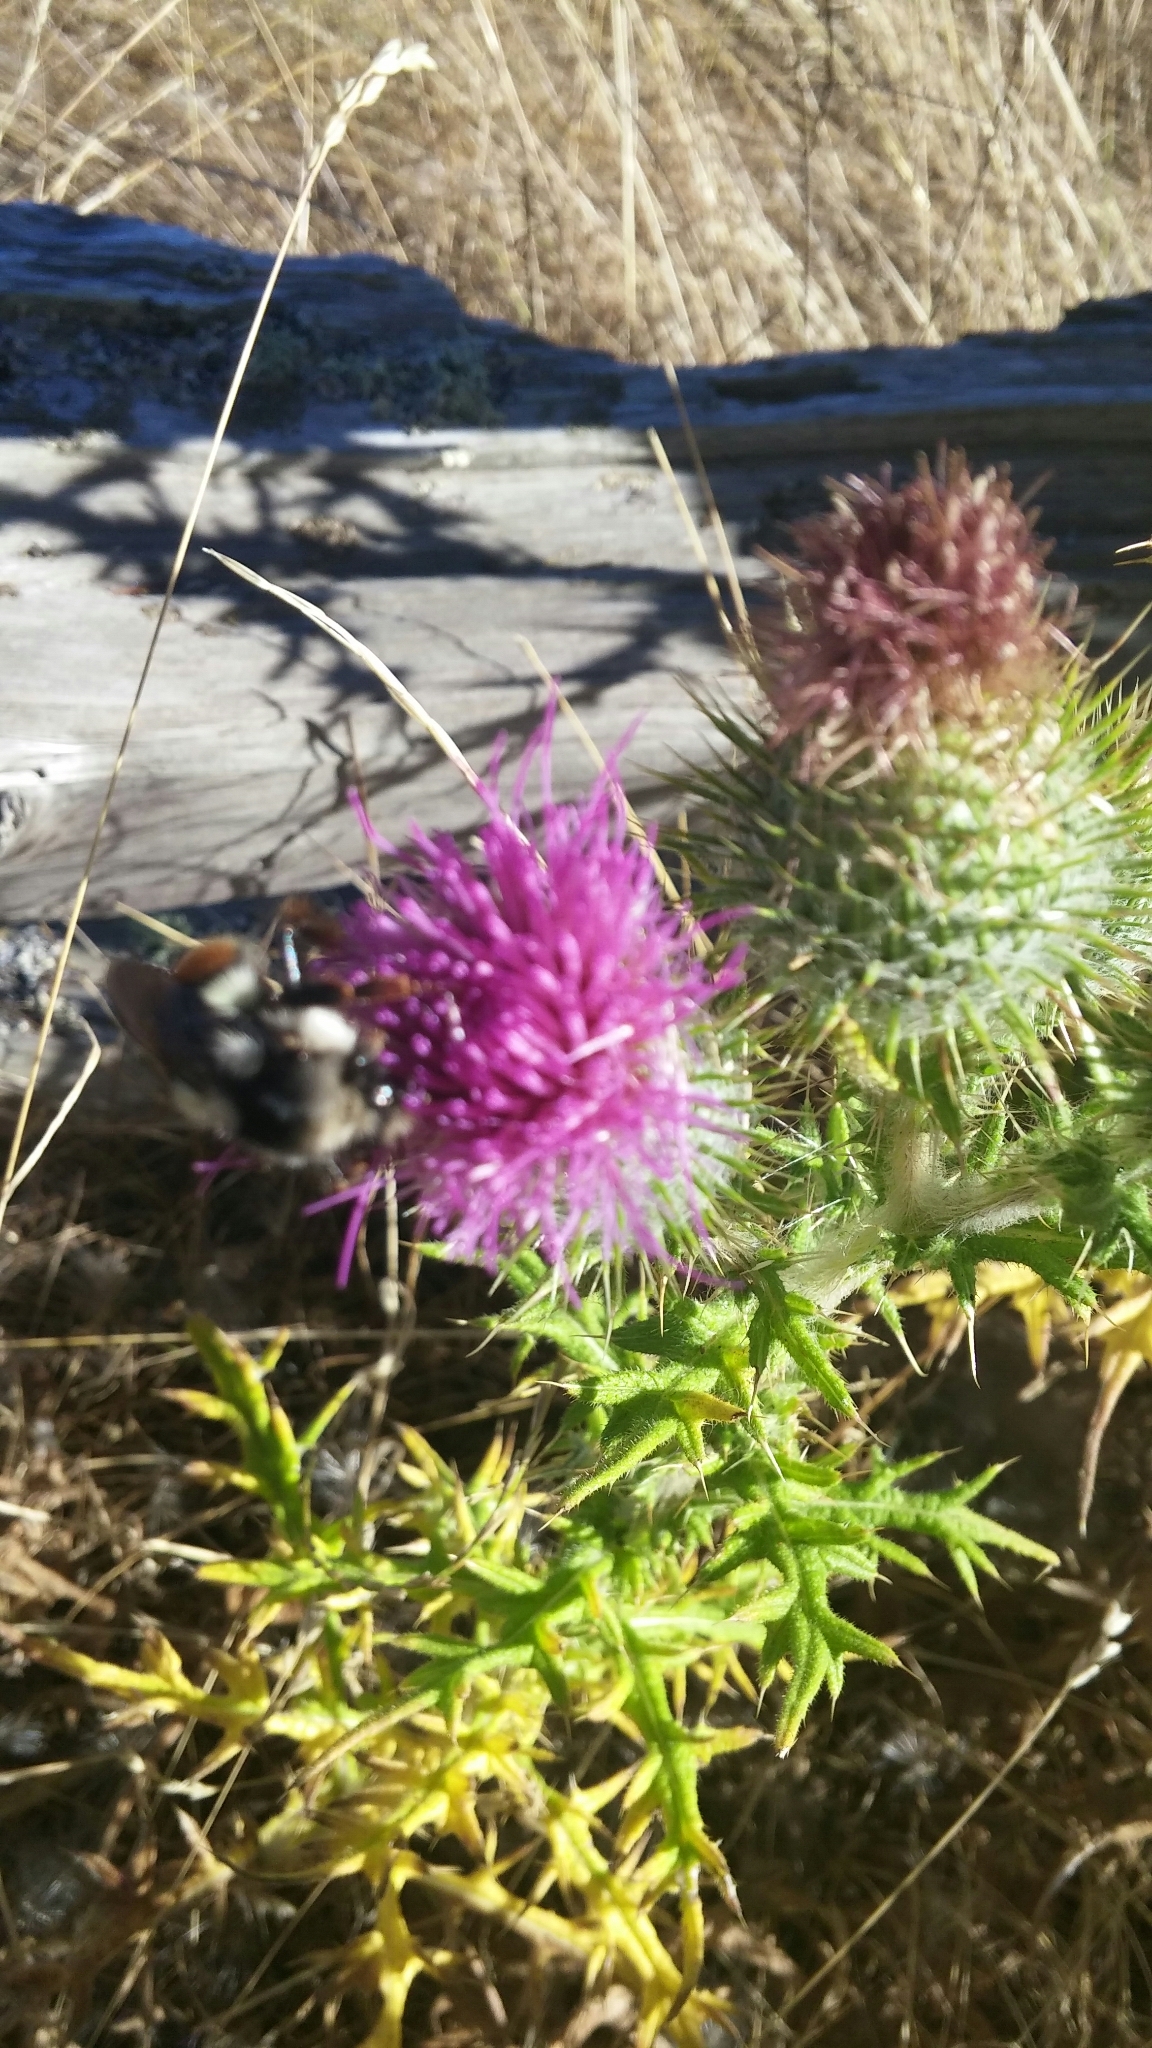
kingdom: Animalia
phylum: Arthropoda
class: Insecta
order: Hymenoptera
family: Apidae
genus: Bombus
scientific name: Bombus vancouverensis
